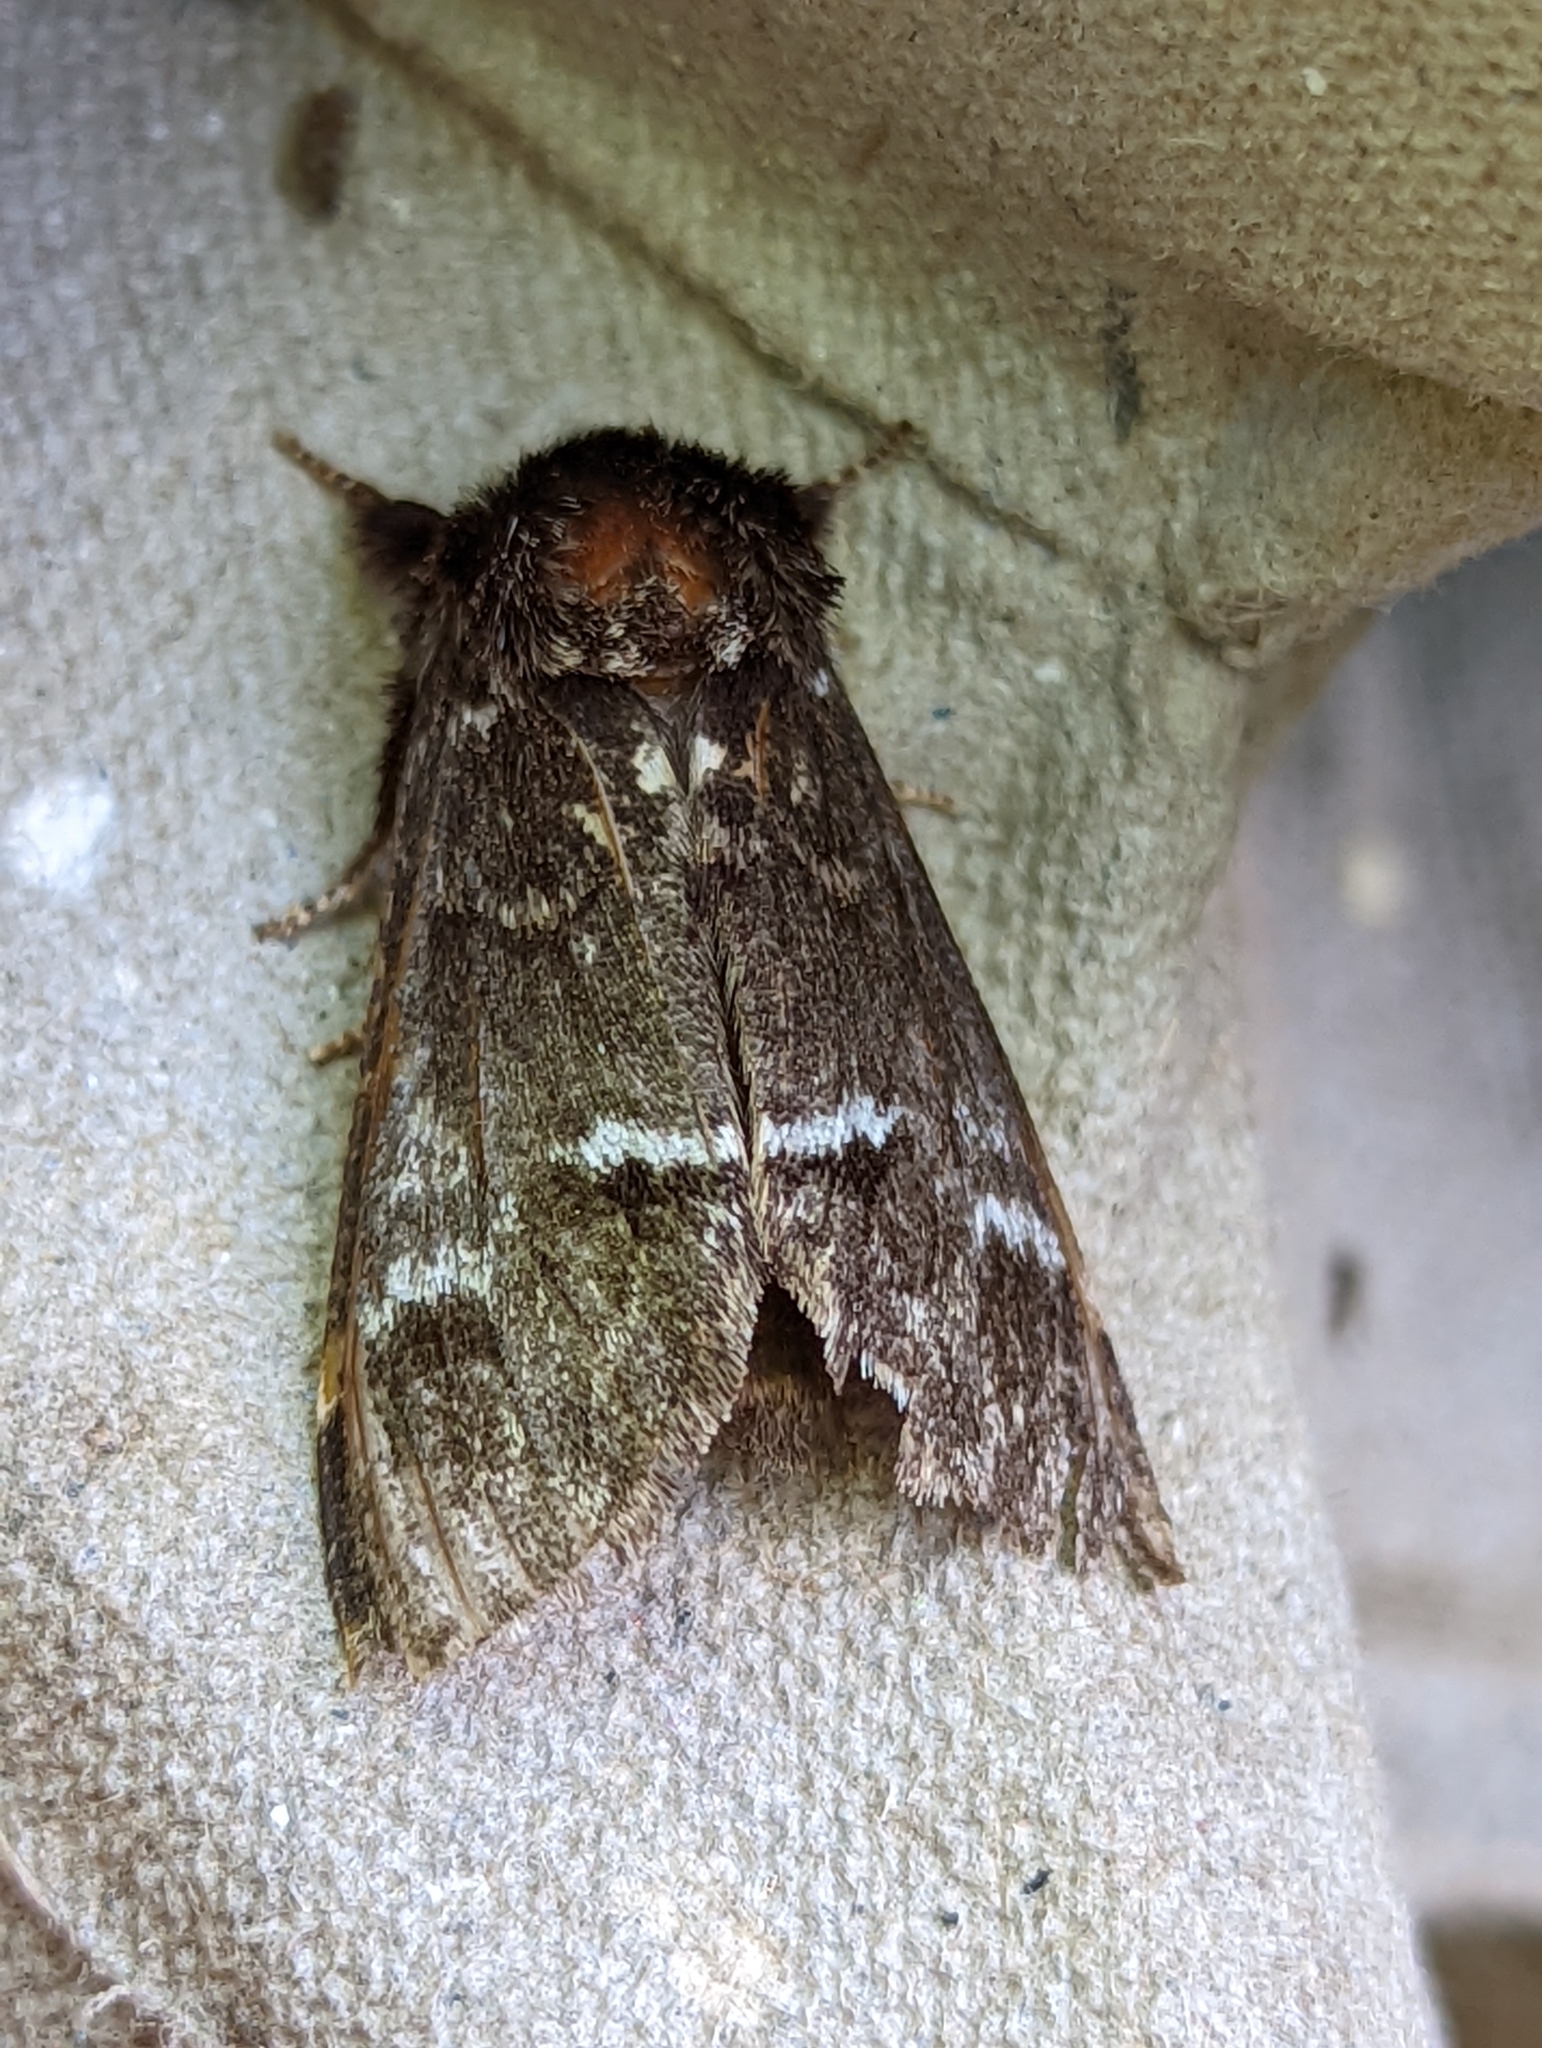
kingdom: Animalia
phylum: Arthropoda
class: Insecta
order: Lepidoptera
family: Notodontidae
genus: Drymonia
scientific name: Drymonia dodonaea
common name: Marbled brown
